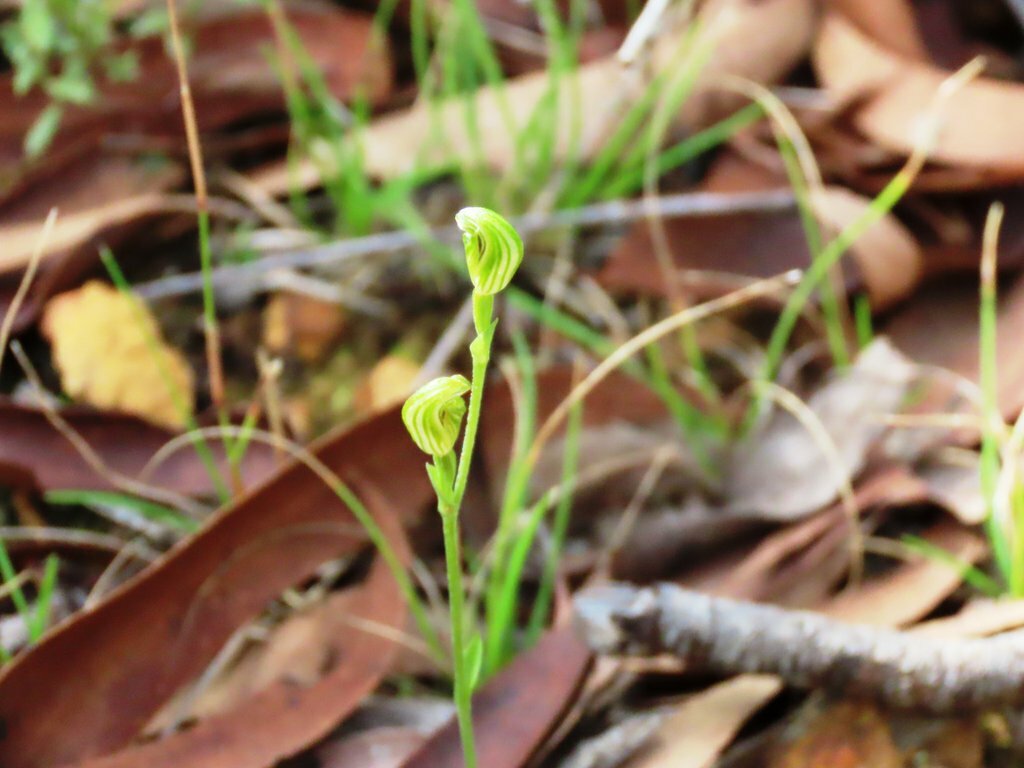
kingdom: Plantae
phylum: Tracheophyta
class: Liliopsida
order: Asparagales
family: Orchidaceae
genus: Pterostylis
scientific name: Pterostylis parviflora
